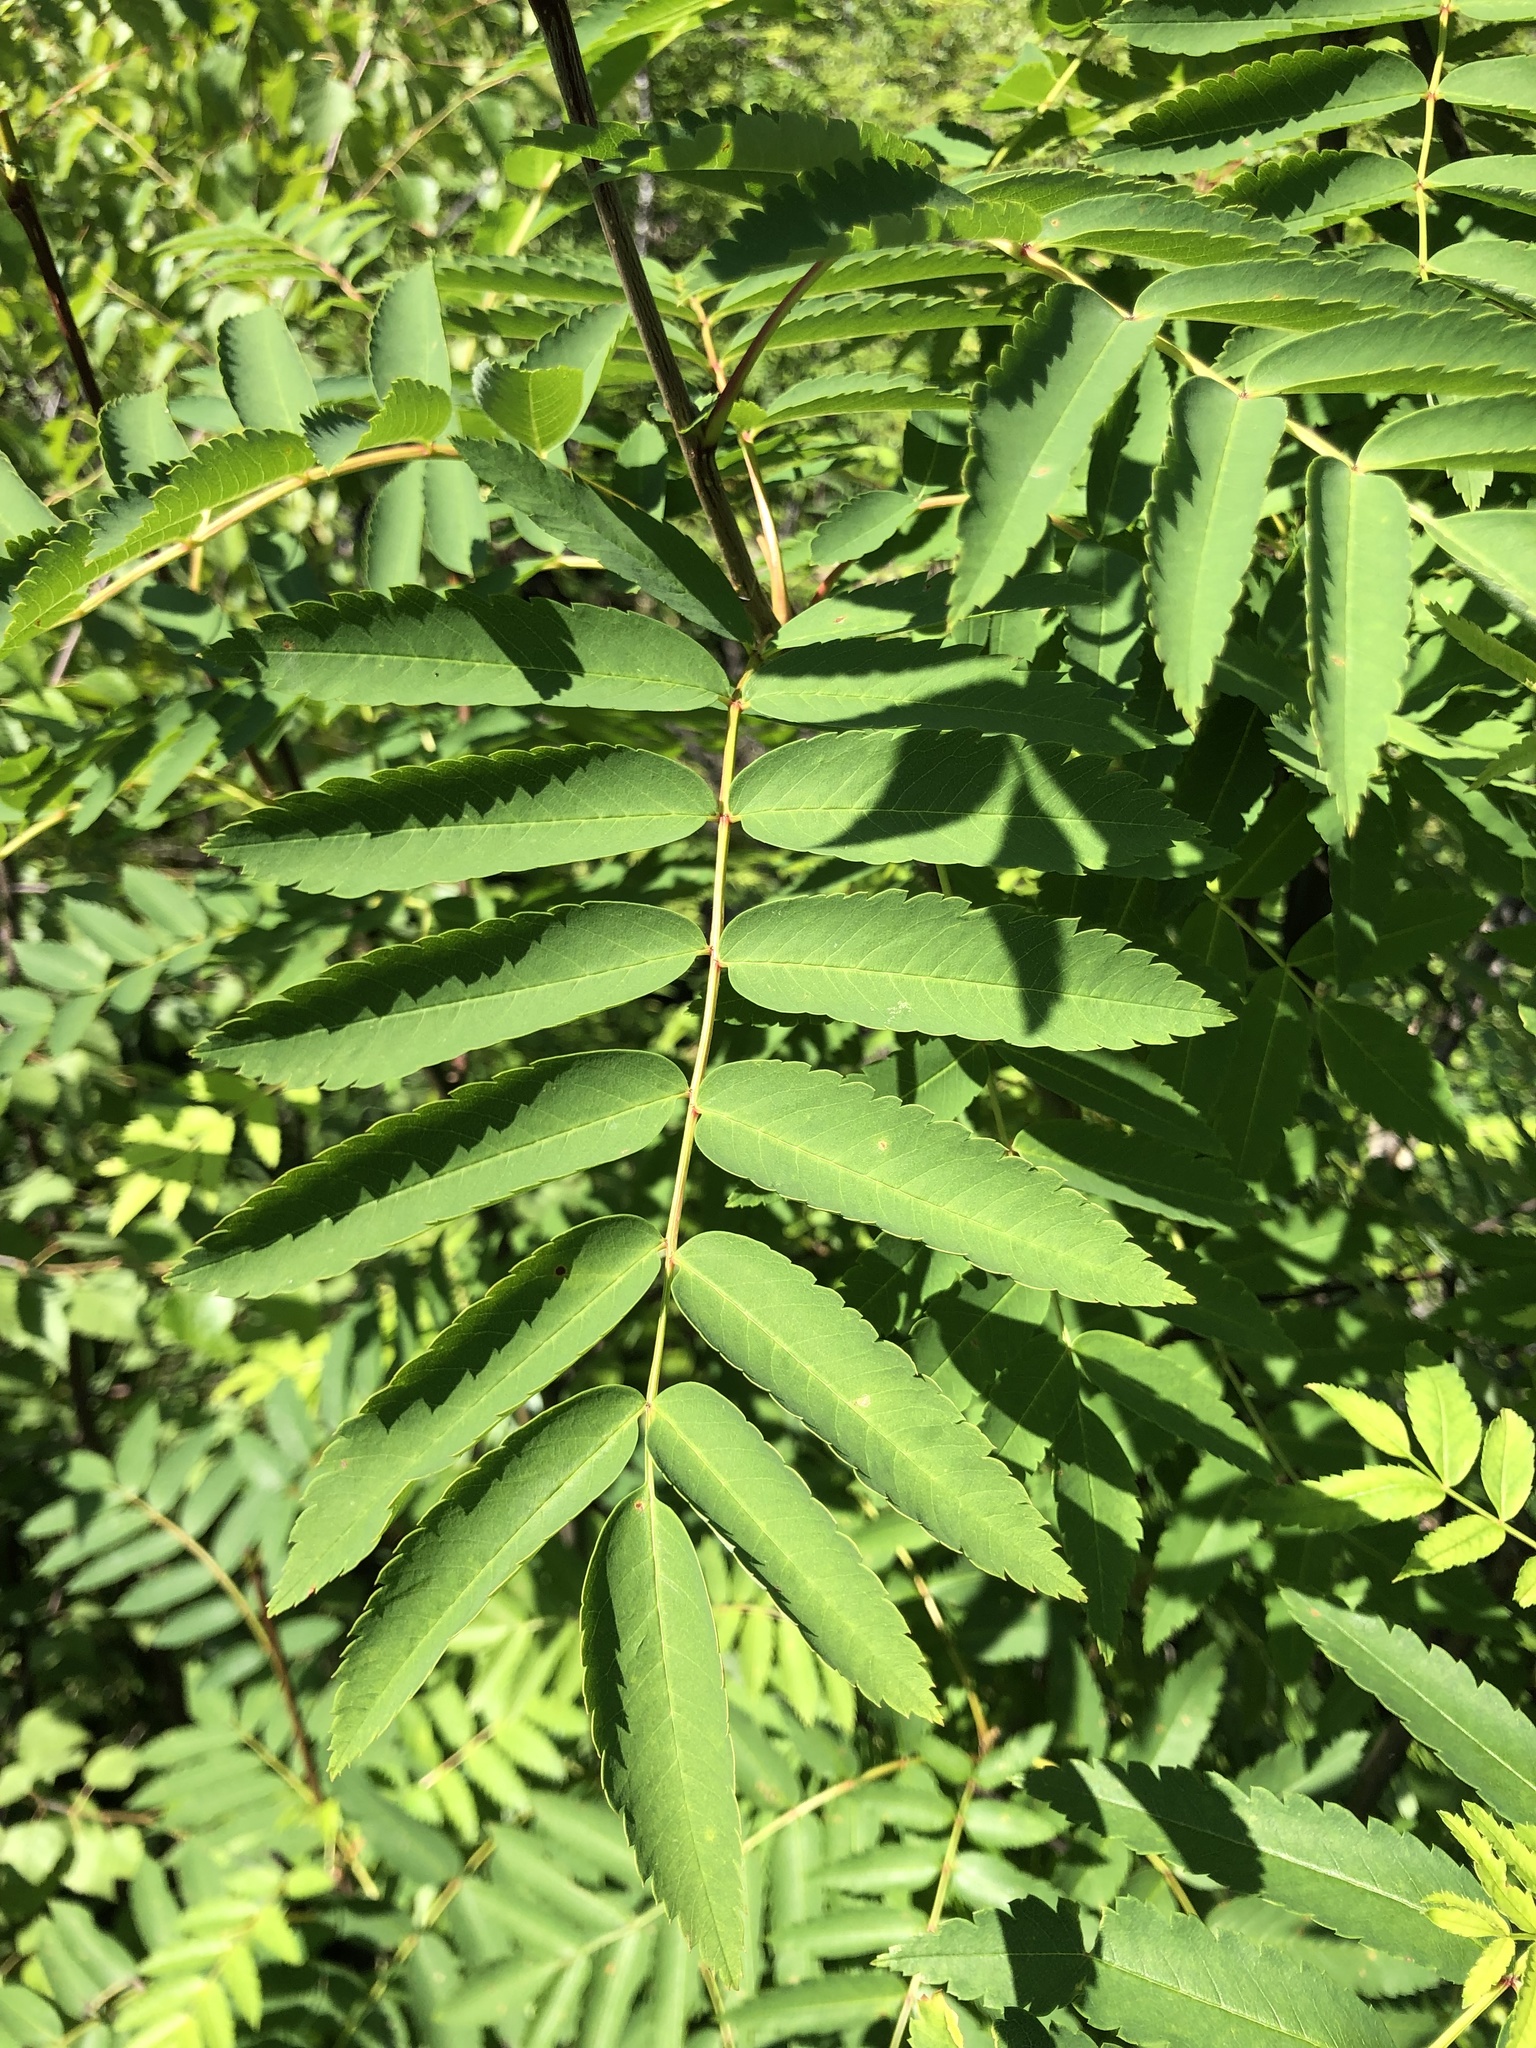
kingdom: Plantae
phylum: Tracheophyta
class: Magnoliopsida
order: Rosales
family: Rosaceae
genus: Sorbus
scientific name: Sorbus aucuparia
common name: Rowan
